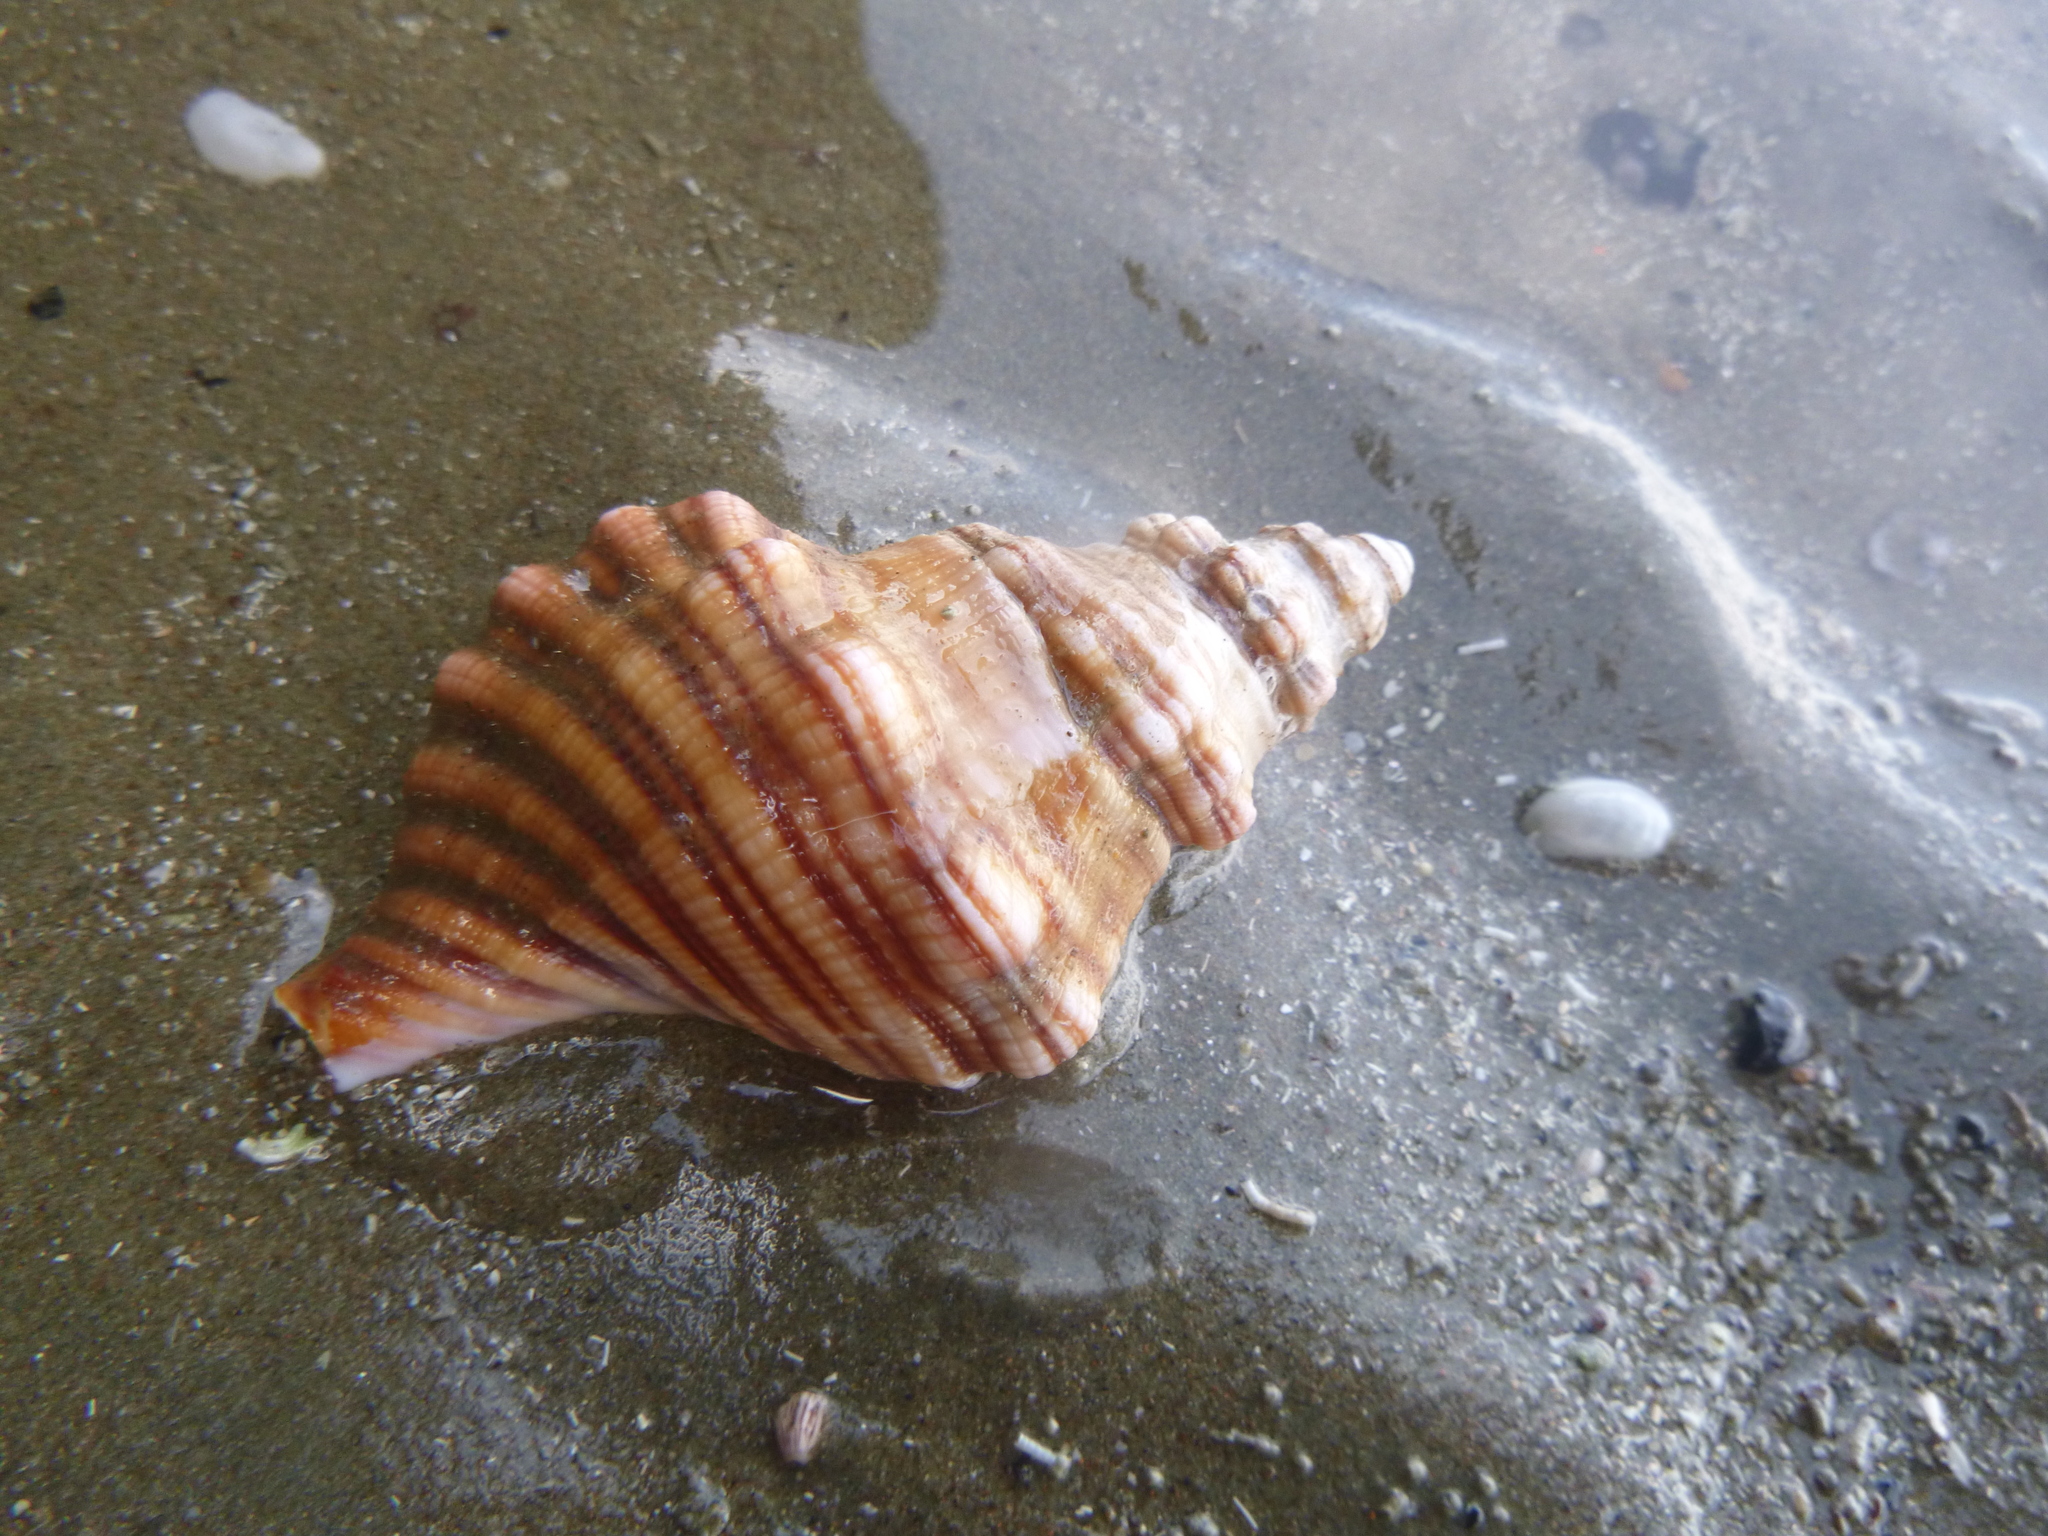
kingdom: Animalia
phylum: Mollusca
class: Gastropoda
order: Littorinimorpha
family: Cymatiidae
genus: Cabestana
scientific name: Cabestana spengleri
